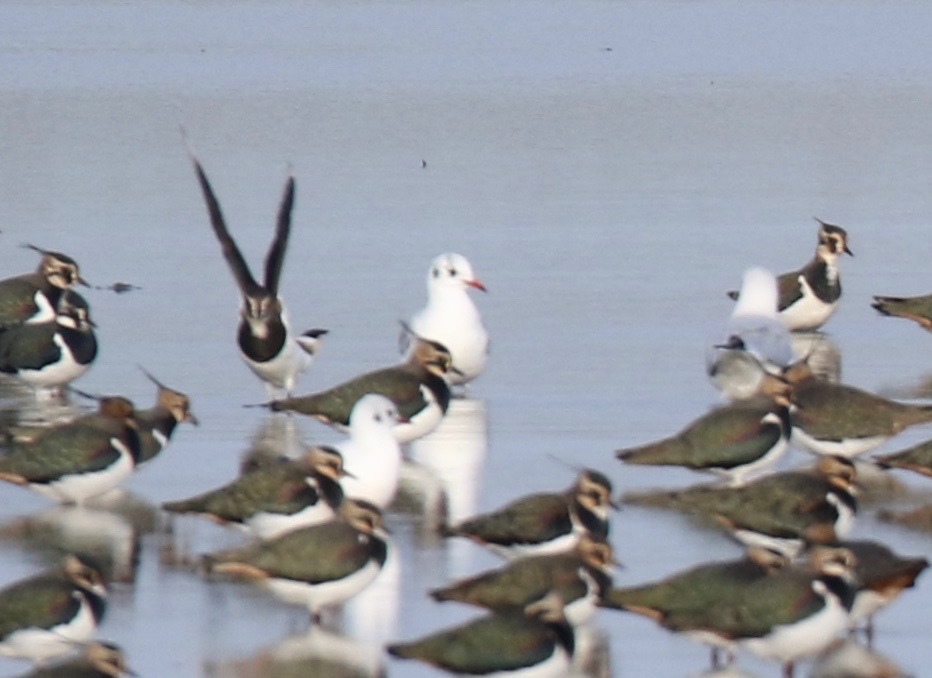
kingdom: Animalia
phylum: Chordata
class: Aves
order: Charadriiformes
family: Laridae
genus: Chroicocephalus
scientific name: Chroicocephalus ridibundus
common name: Black-headed gull
